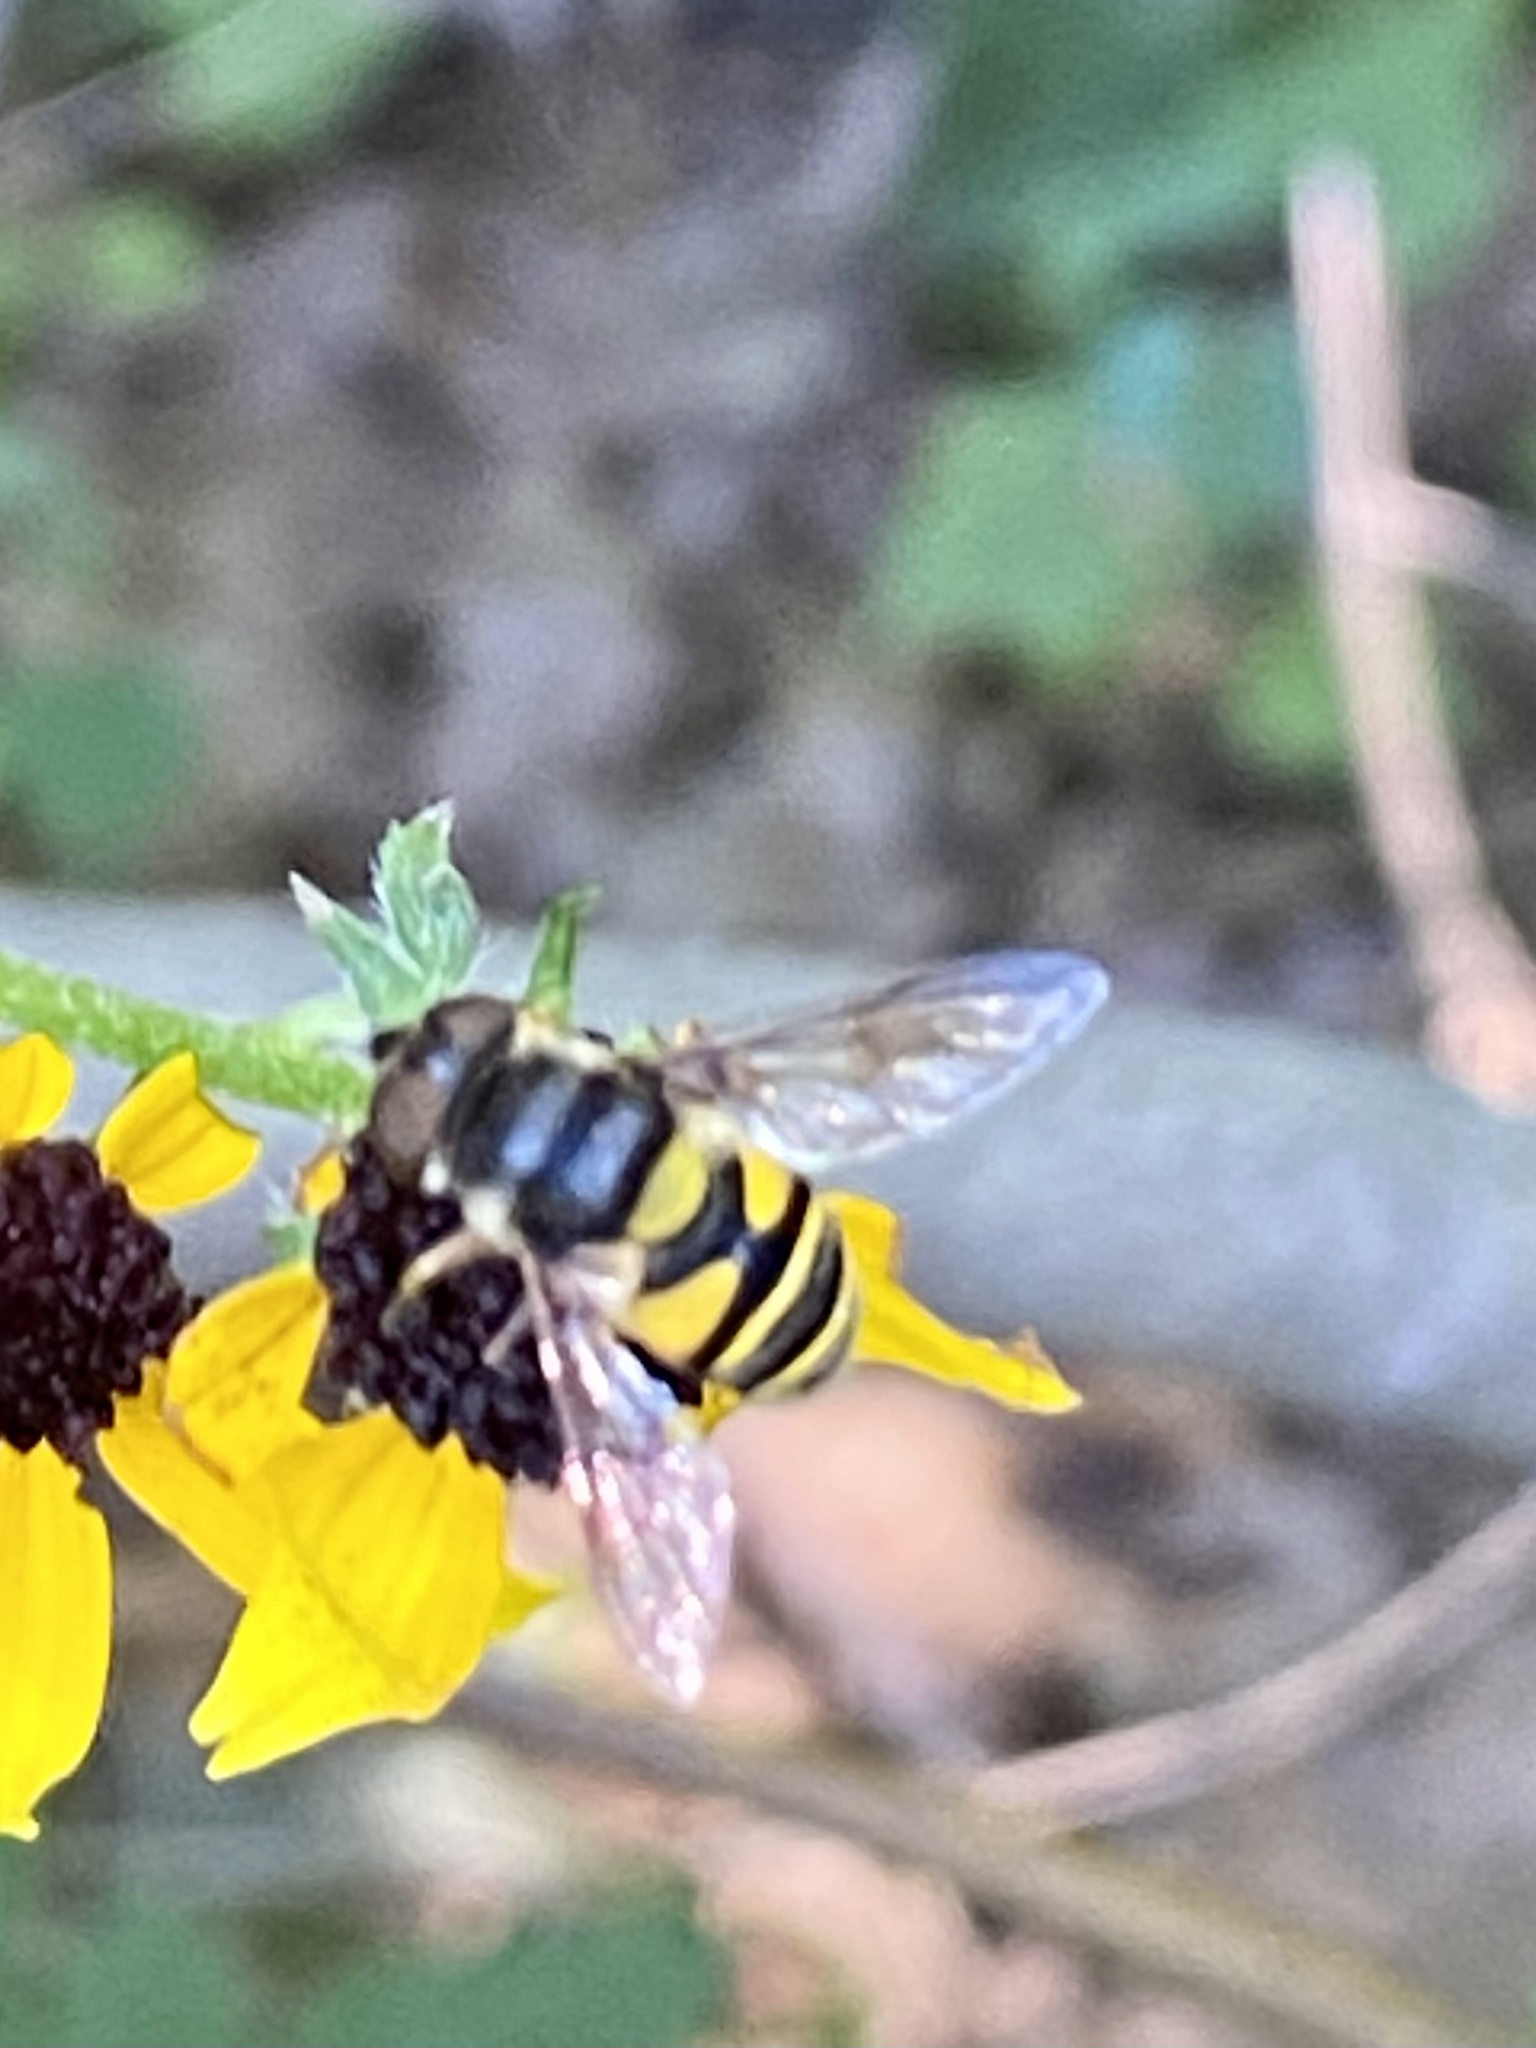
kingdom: Animalia
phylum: Arthropoda
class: Insecta
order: Diptera
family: Syrphidae
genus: Eristalis
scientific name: Eristalis transversa
